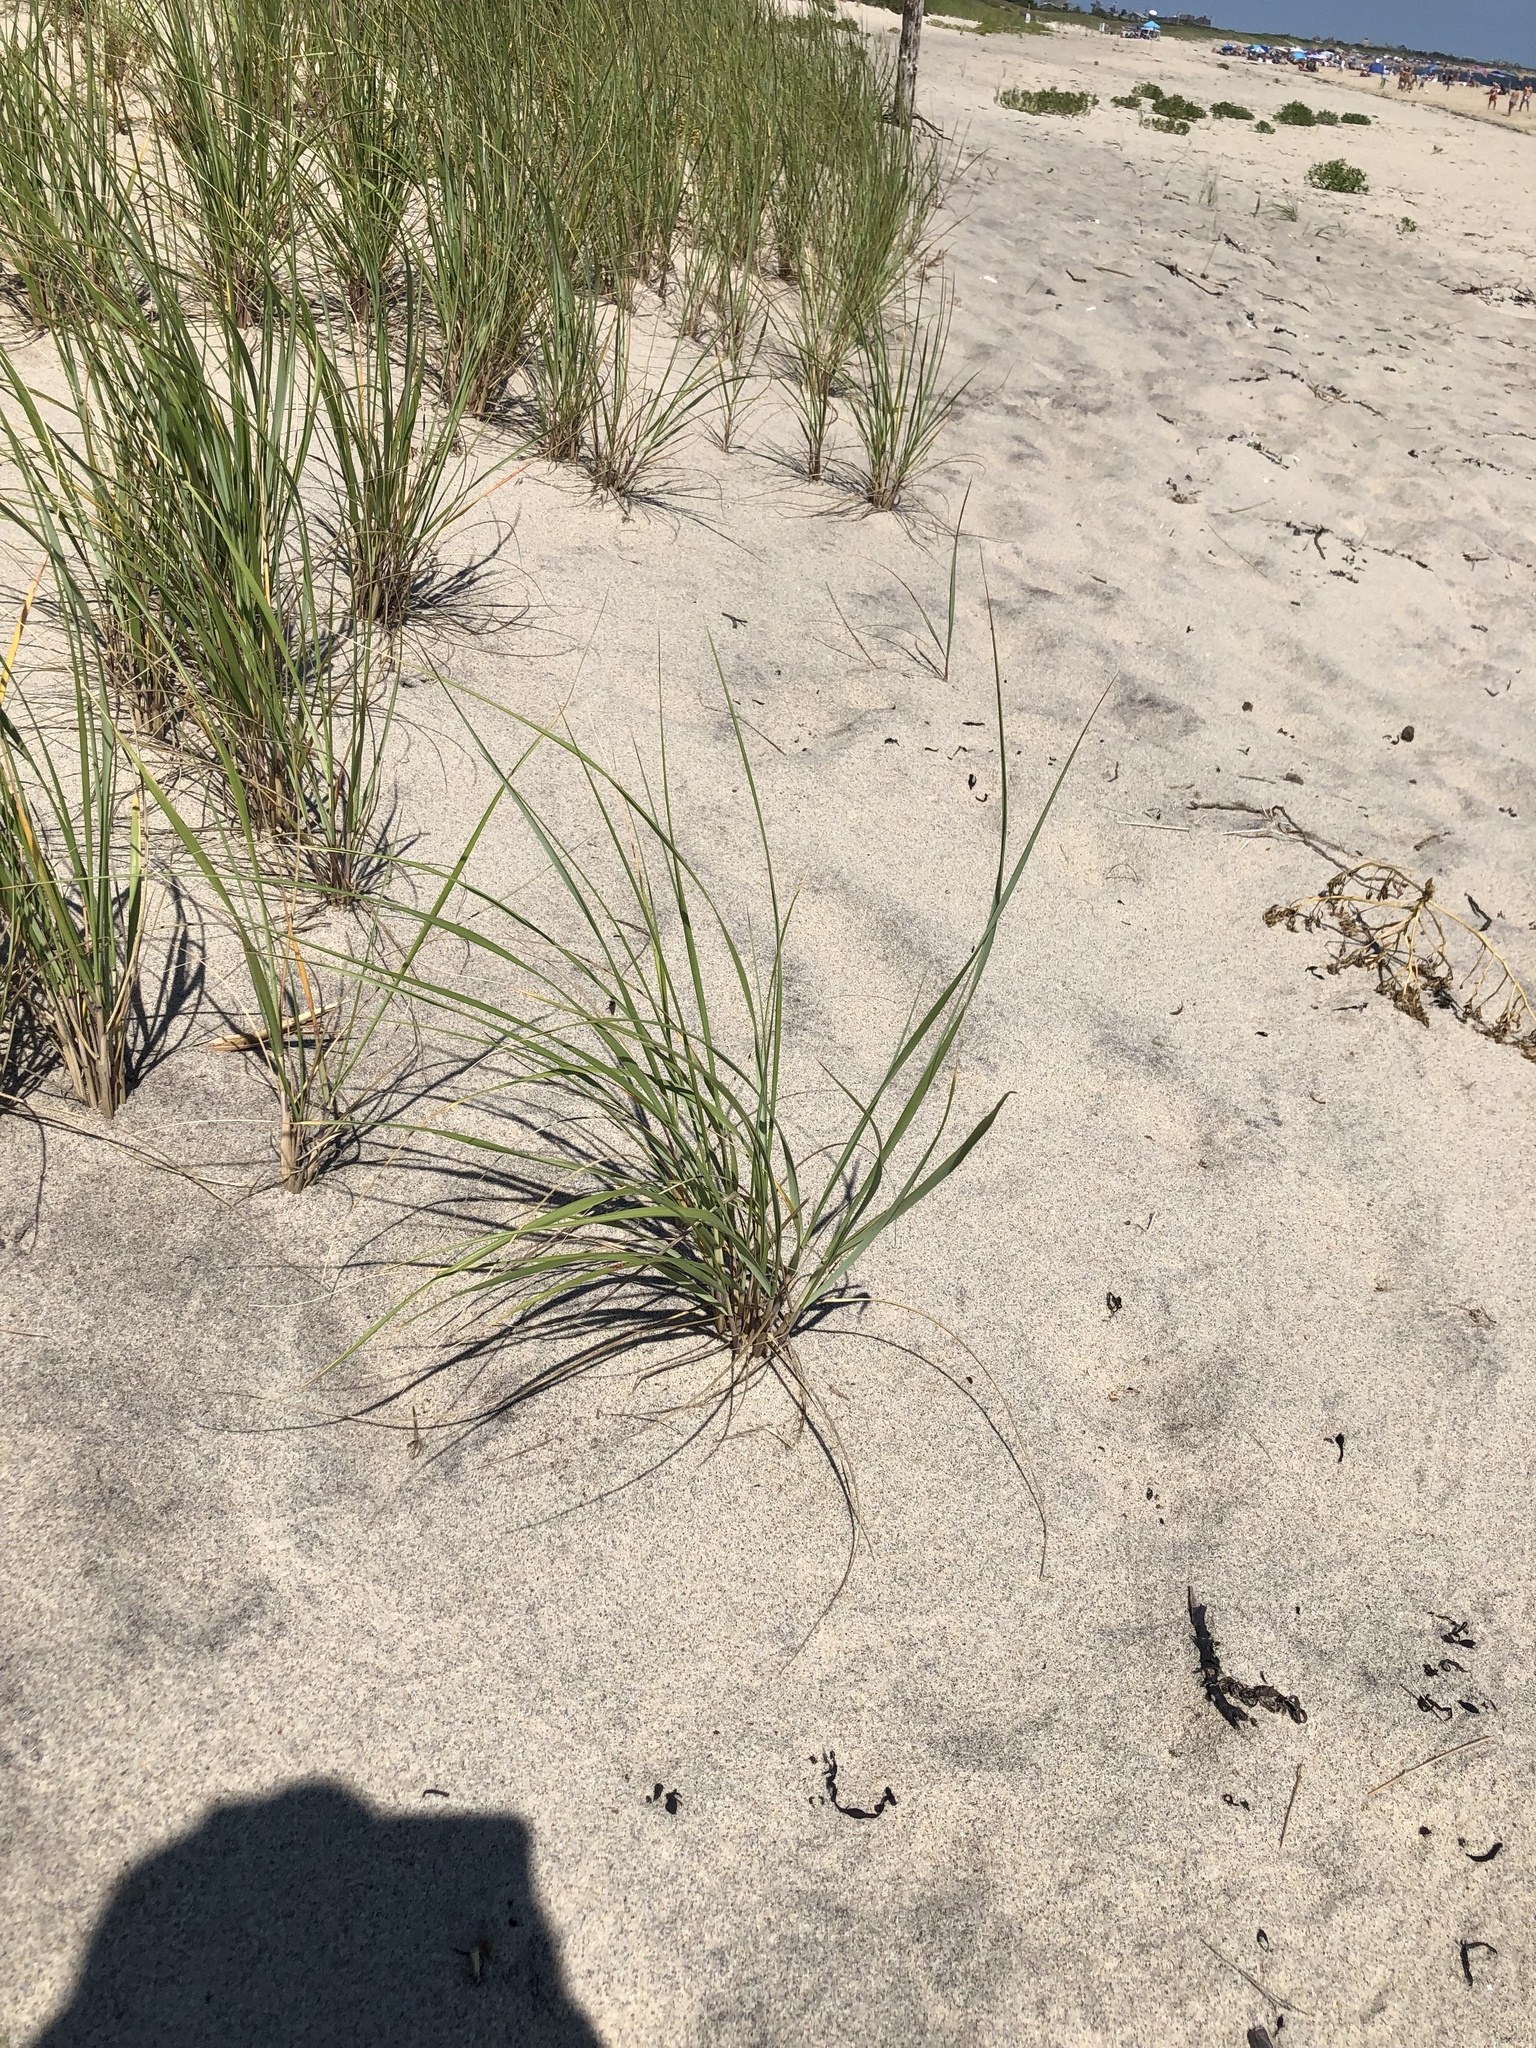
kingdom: Plantae
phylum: Tracheophyta
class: Liliopsida
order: Poales
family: Poaceae
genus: Calamagrostis
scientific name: Calamagrostis breviligulata
